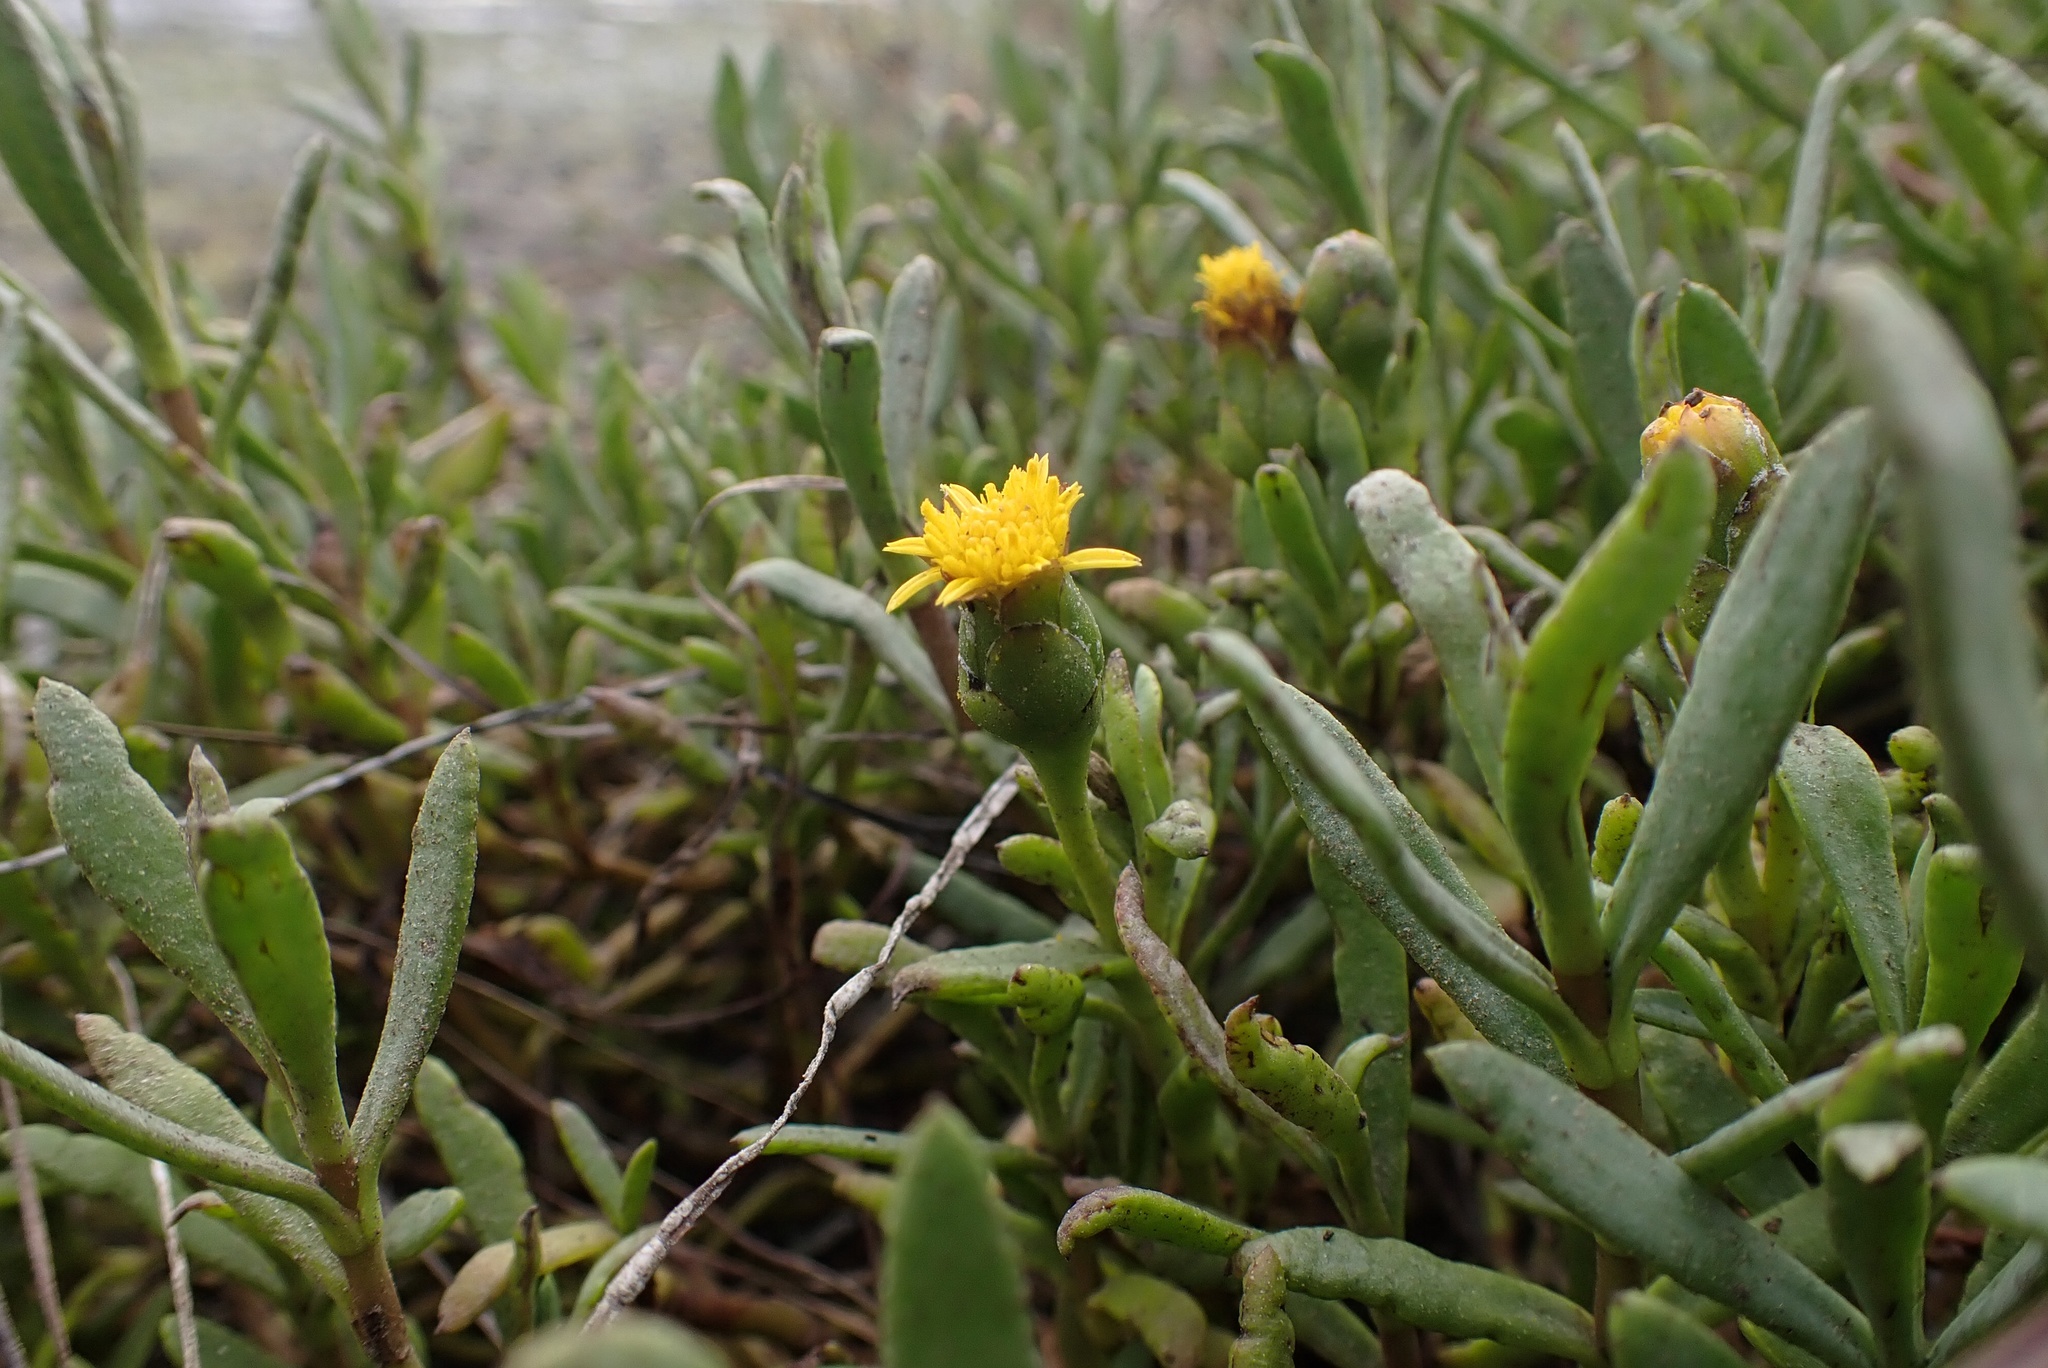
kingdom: Plantae
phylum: Tracheophyta
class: Magnoliopsida
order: Asterales
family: Asteraceae
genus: Jaumea
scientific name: Jaumea carnosa
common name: Fleshy jaumea
